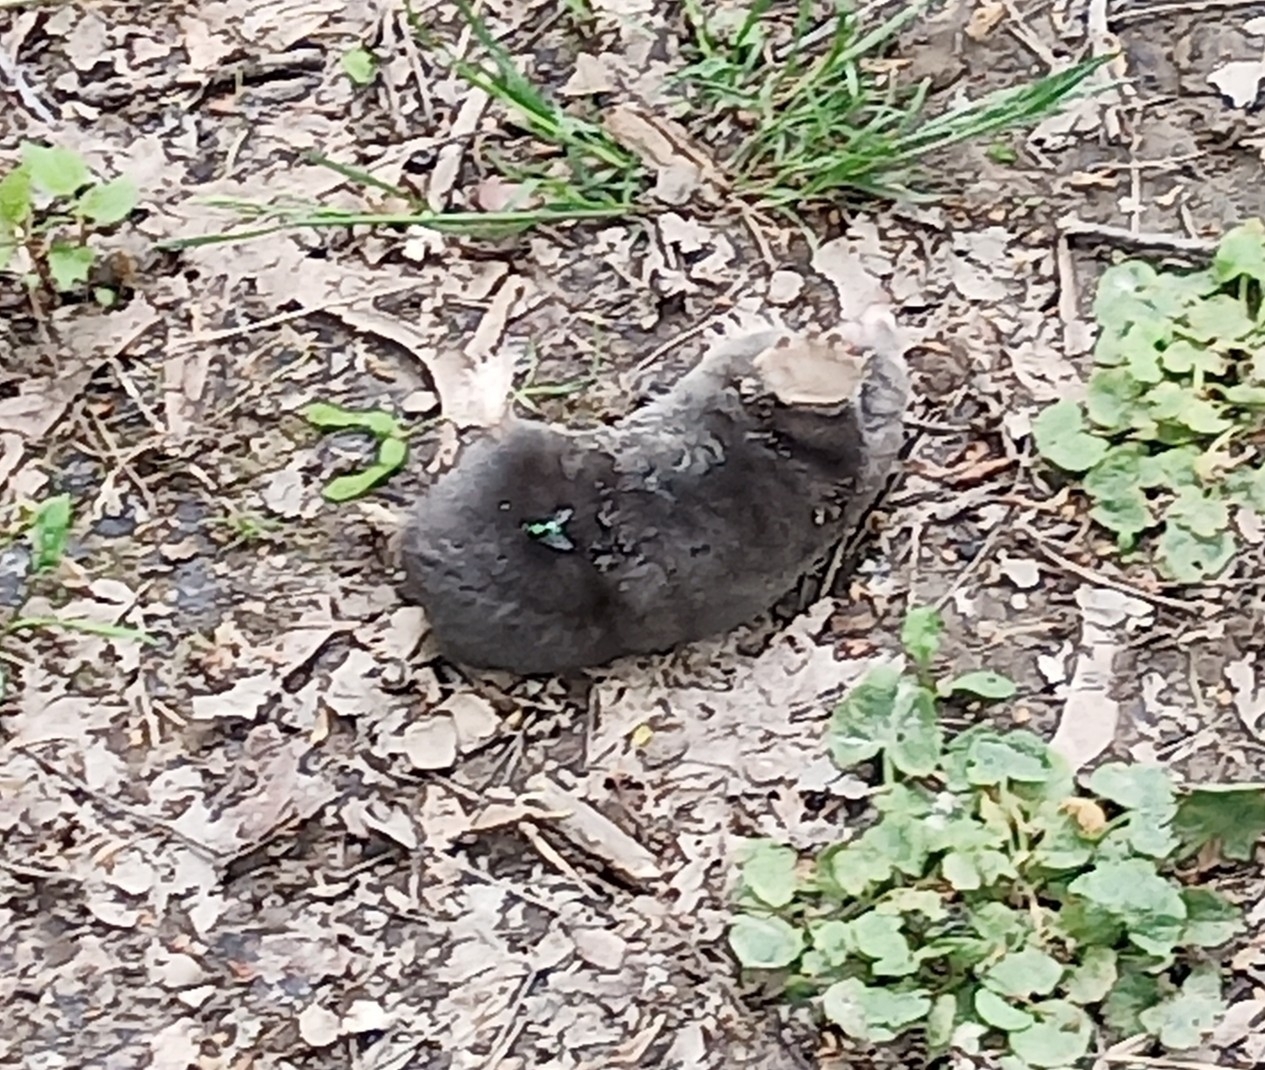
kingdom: Animalia
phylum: Chordata
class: Mammalia
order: Soricomorpha
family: Talpidae
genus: Scalopus
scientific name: Scalopus aquaticus
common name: Eastern mole
